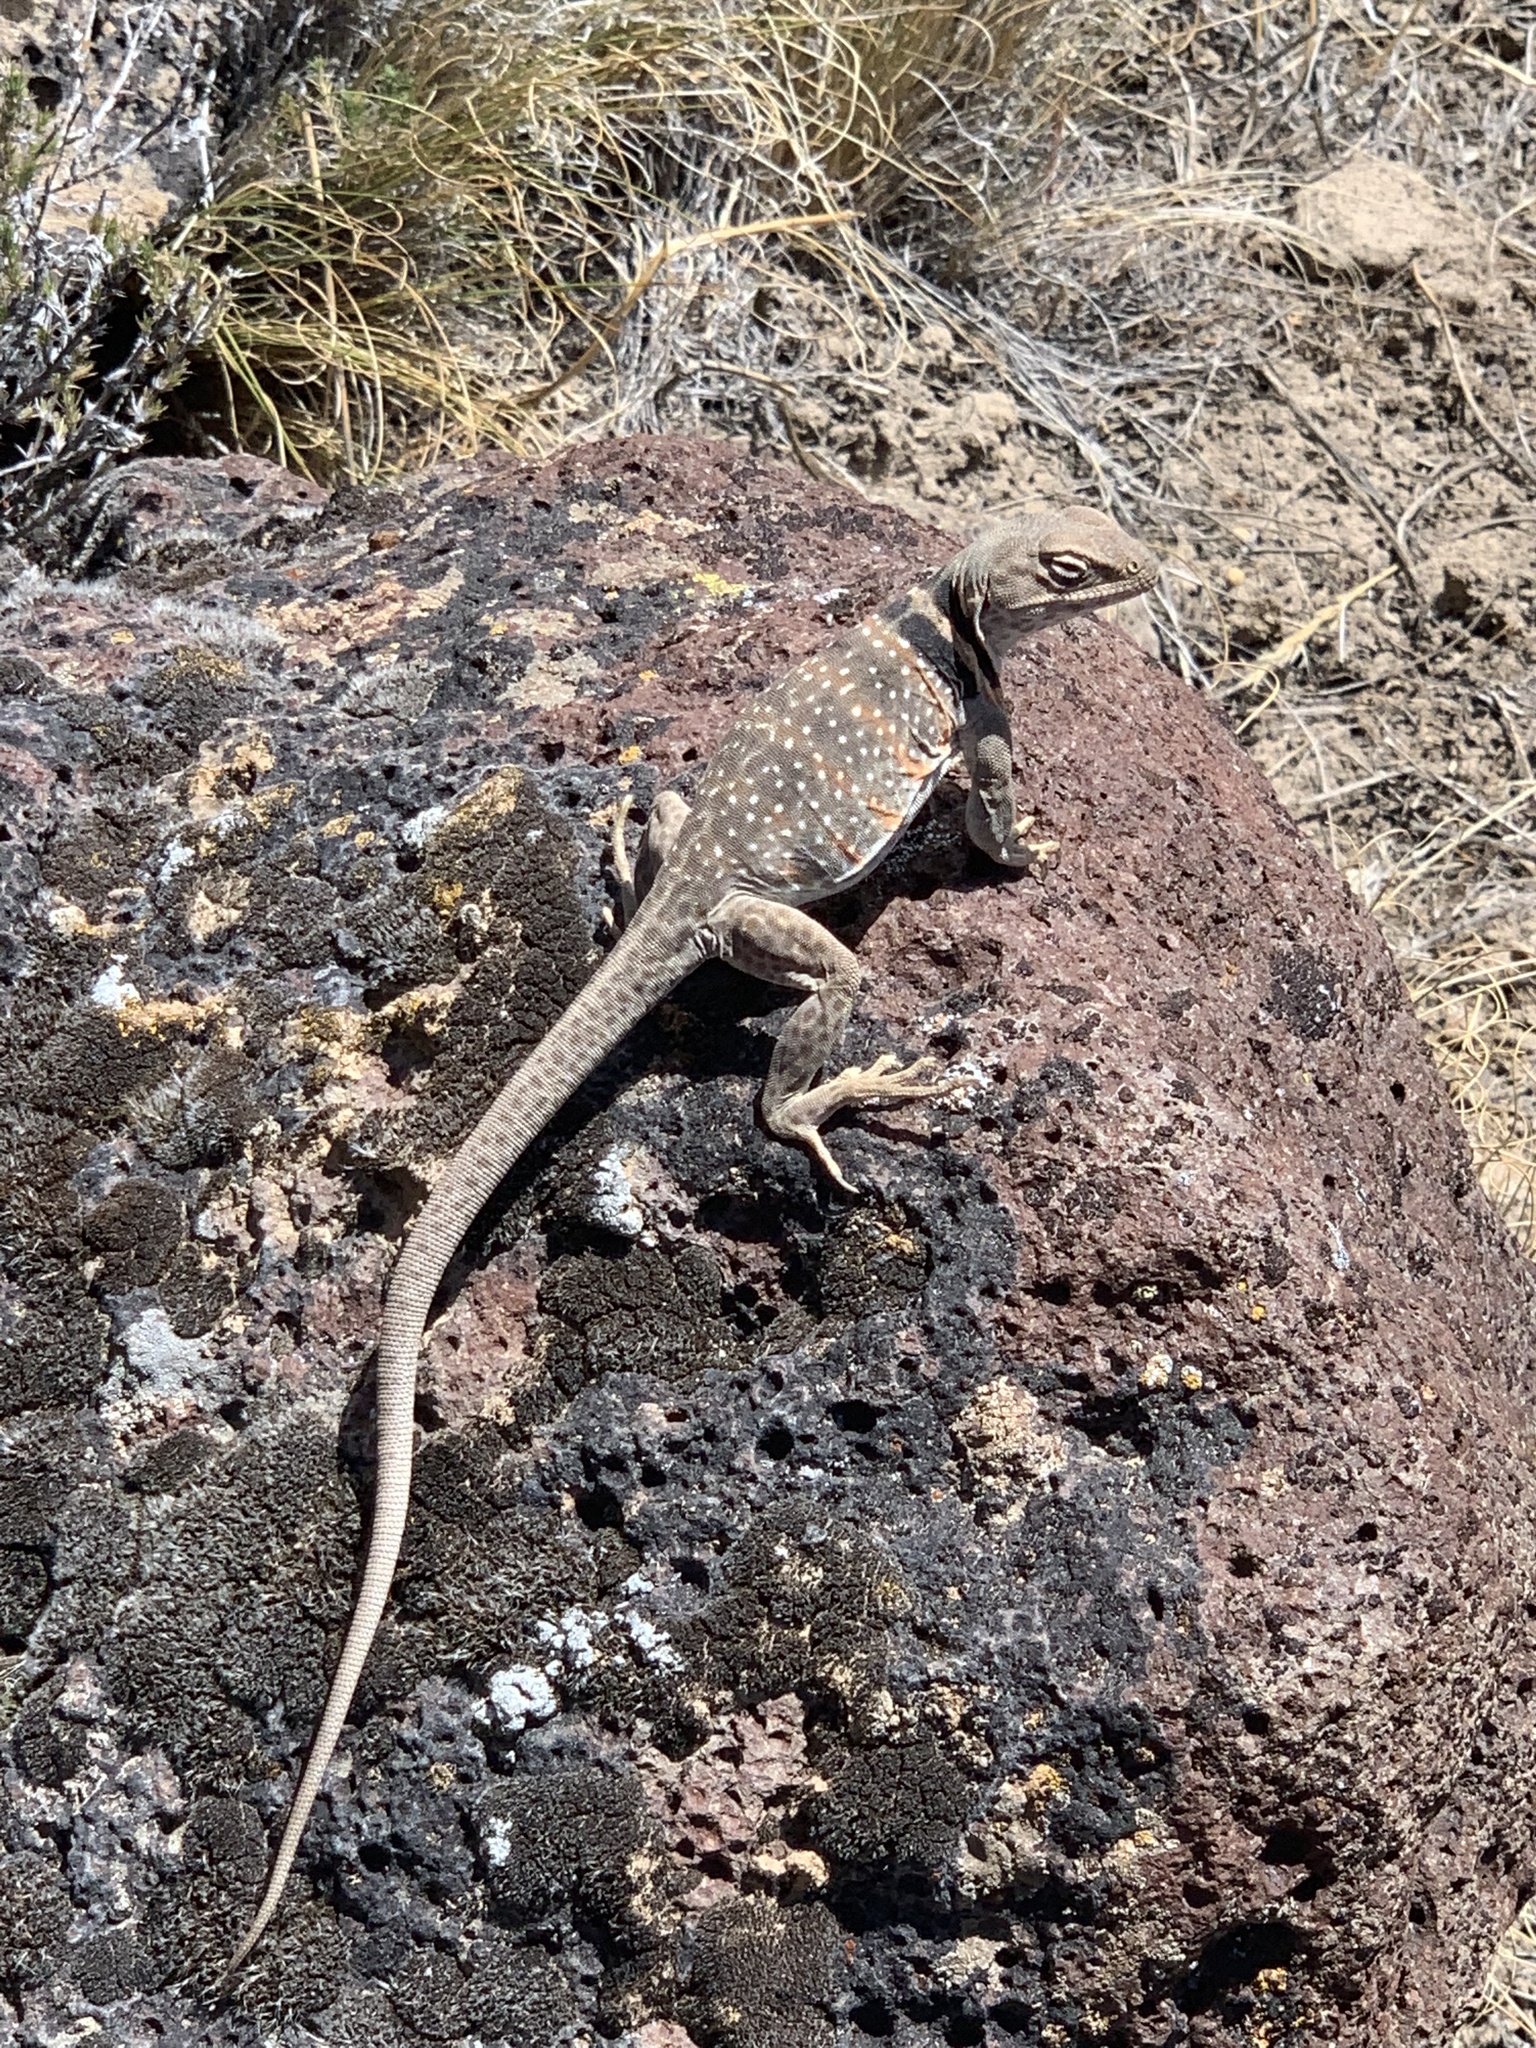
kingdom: Animalia
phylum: Chordata
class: Squamata
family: Crotaphytidae
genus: Crotaphytus
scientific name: Crotaphytus bicinctores
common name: Mojave black-collared lizard
